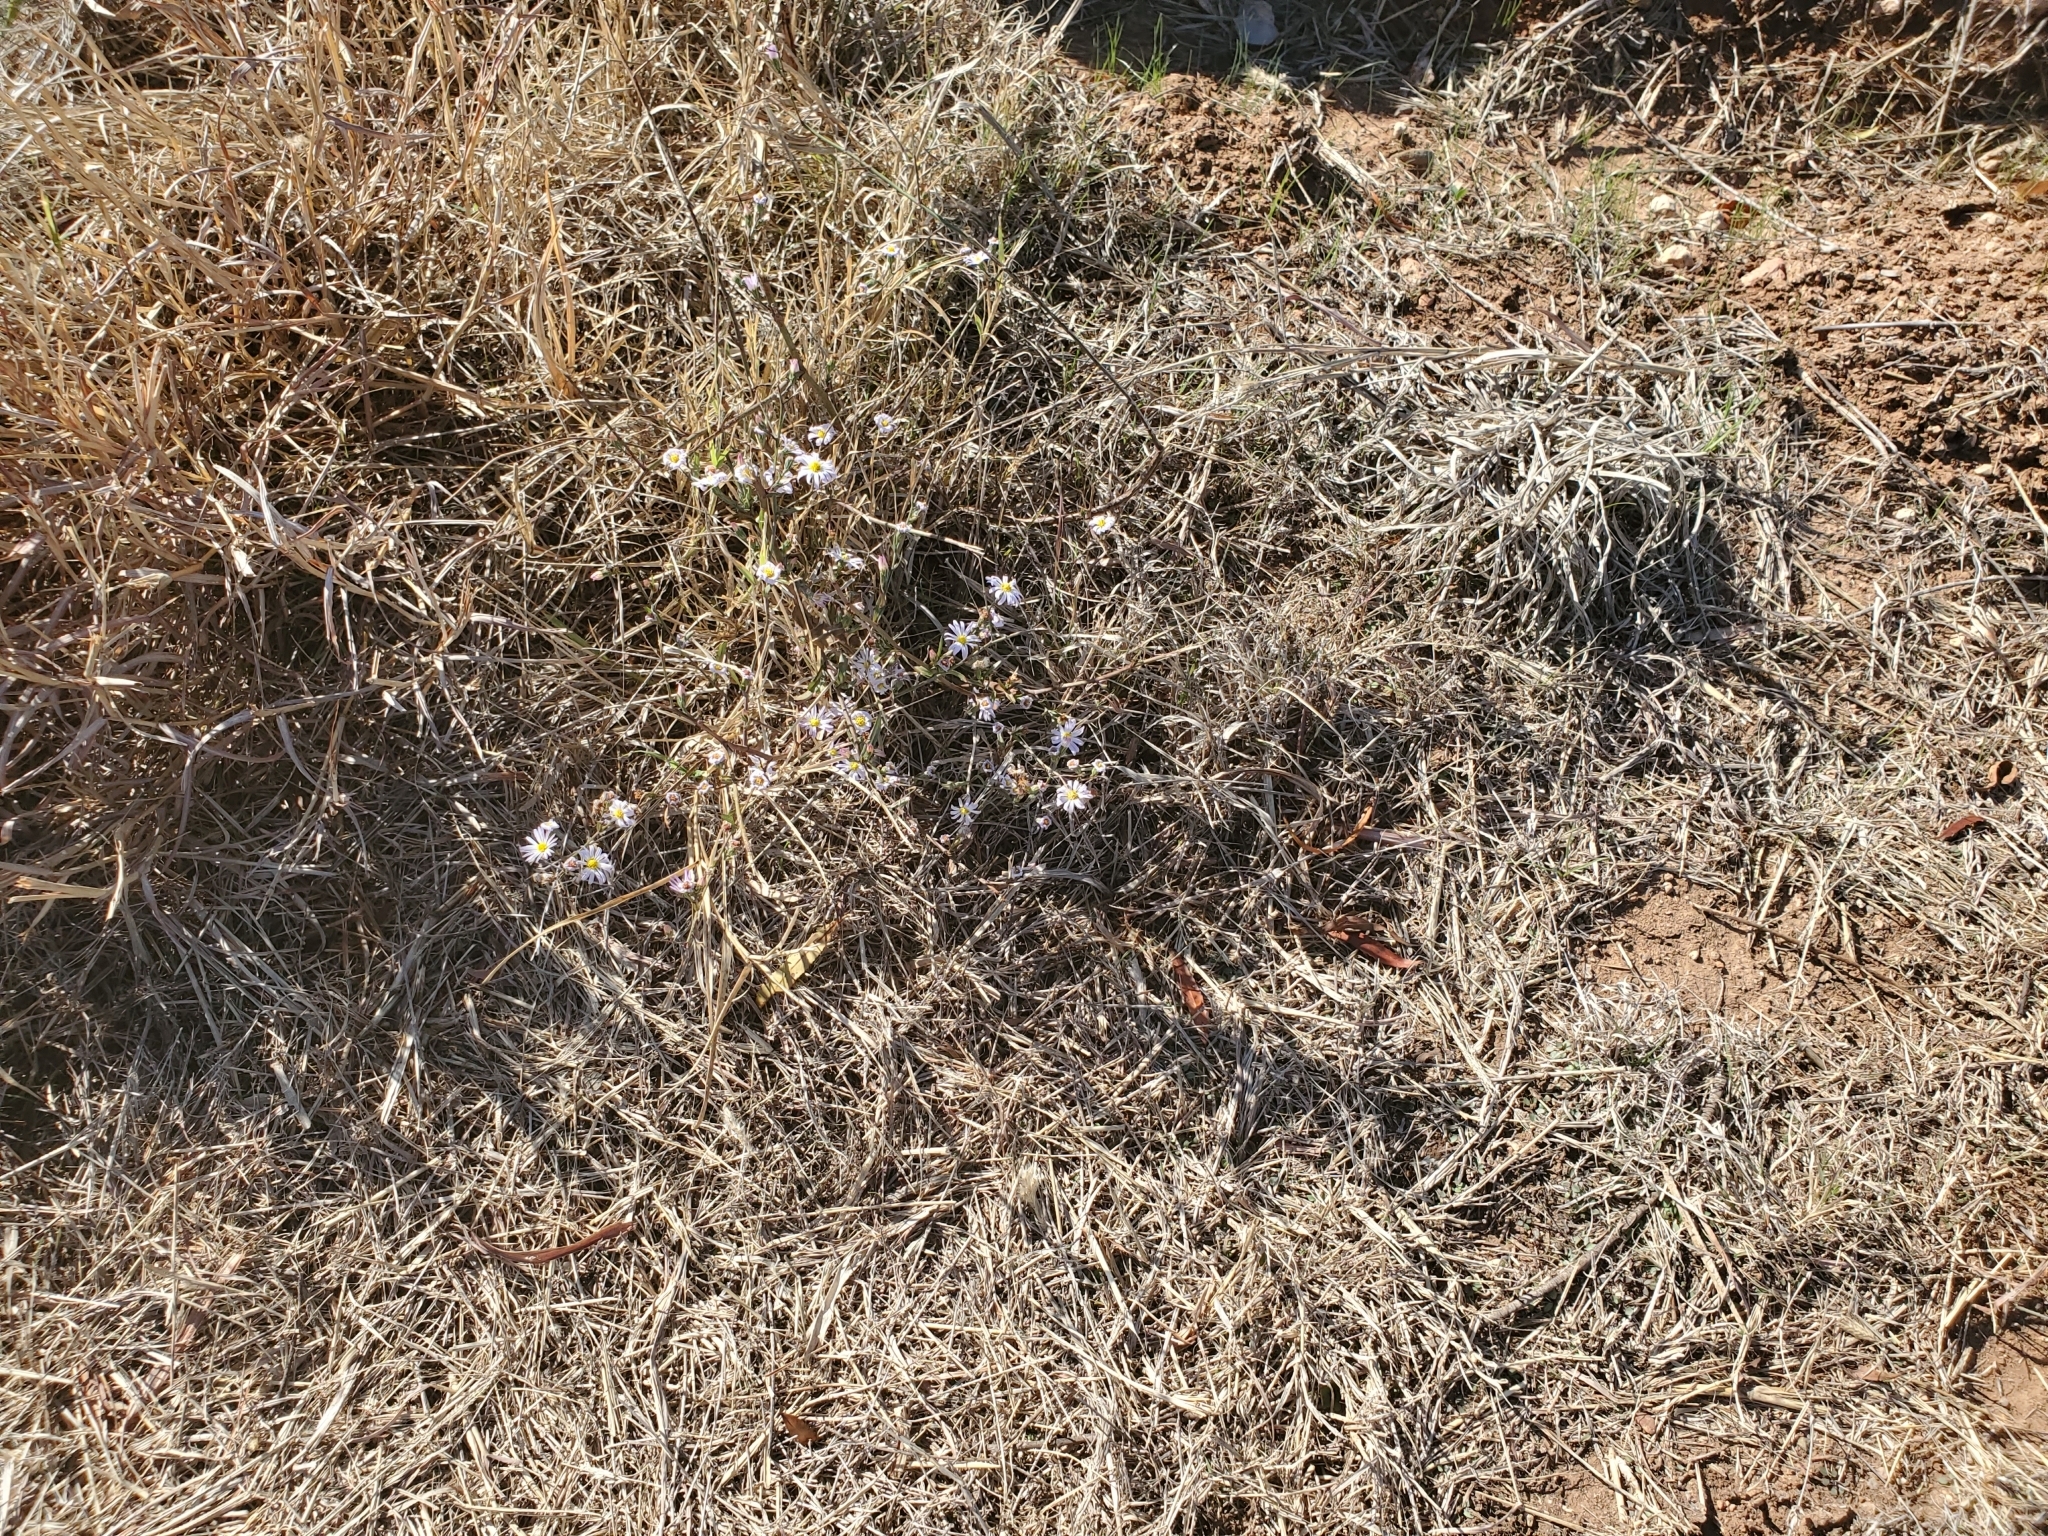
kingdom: Plantae
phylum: Tracheophyta
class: Magnoliopsida
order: Asterales
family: Asteraceae
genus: Symphyotrichum
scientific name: Symphyotrichum divaricatum
